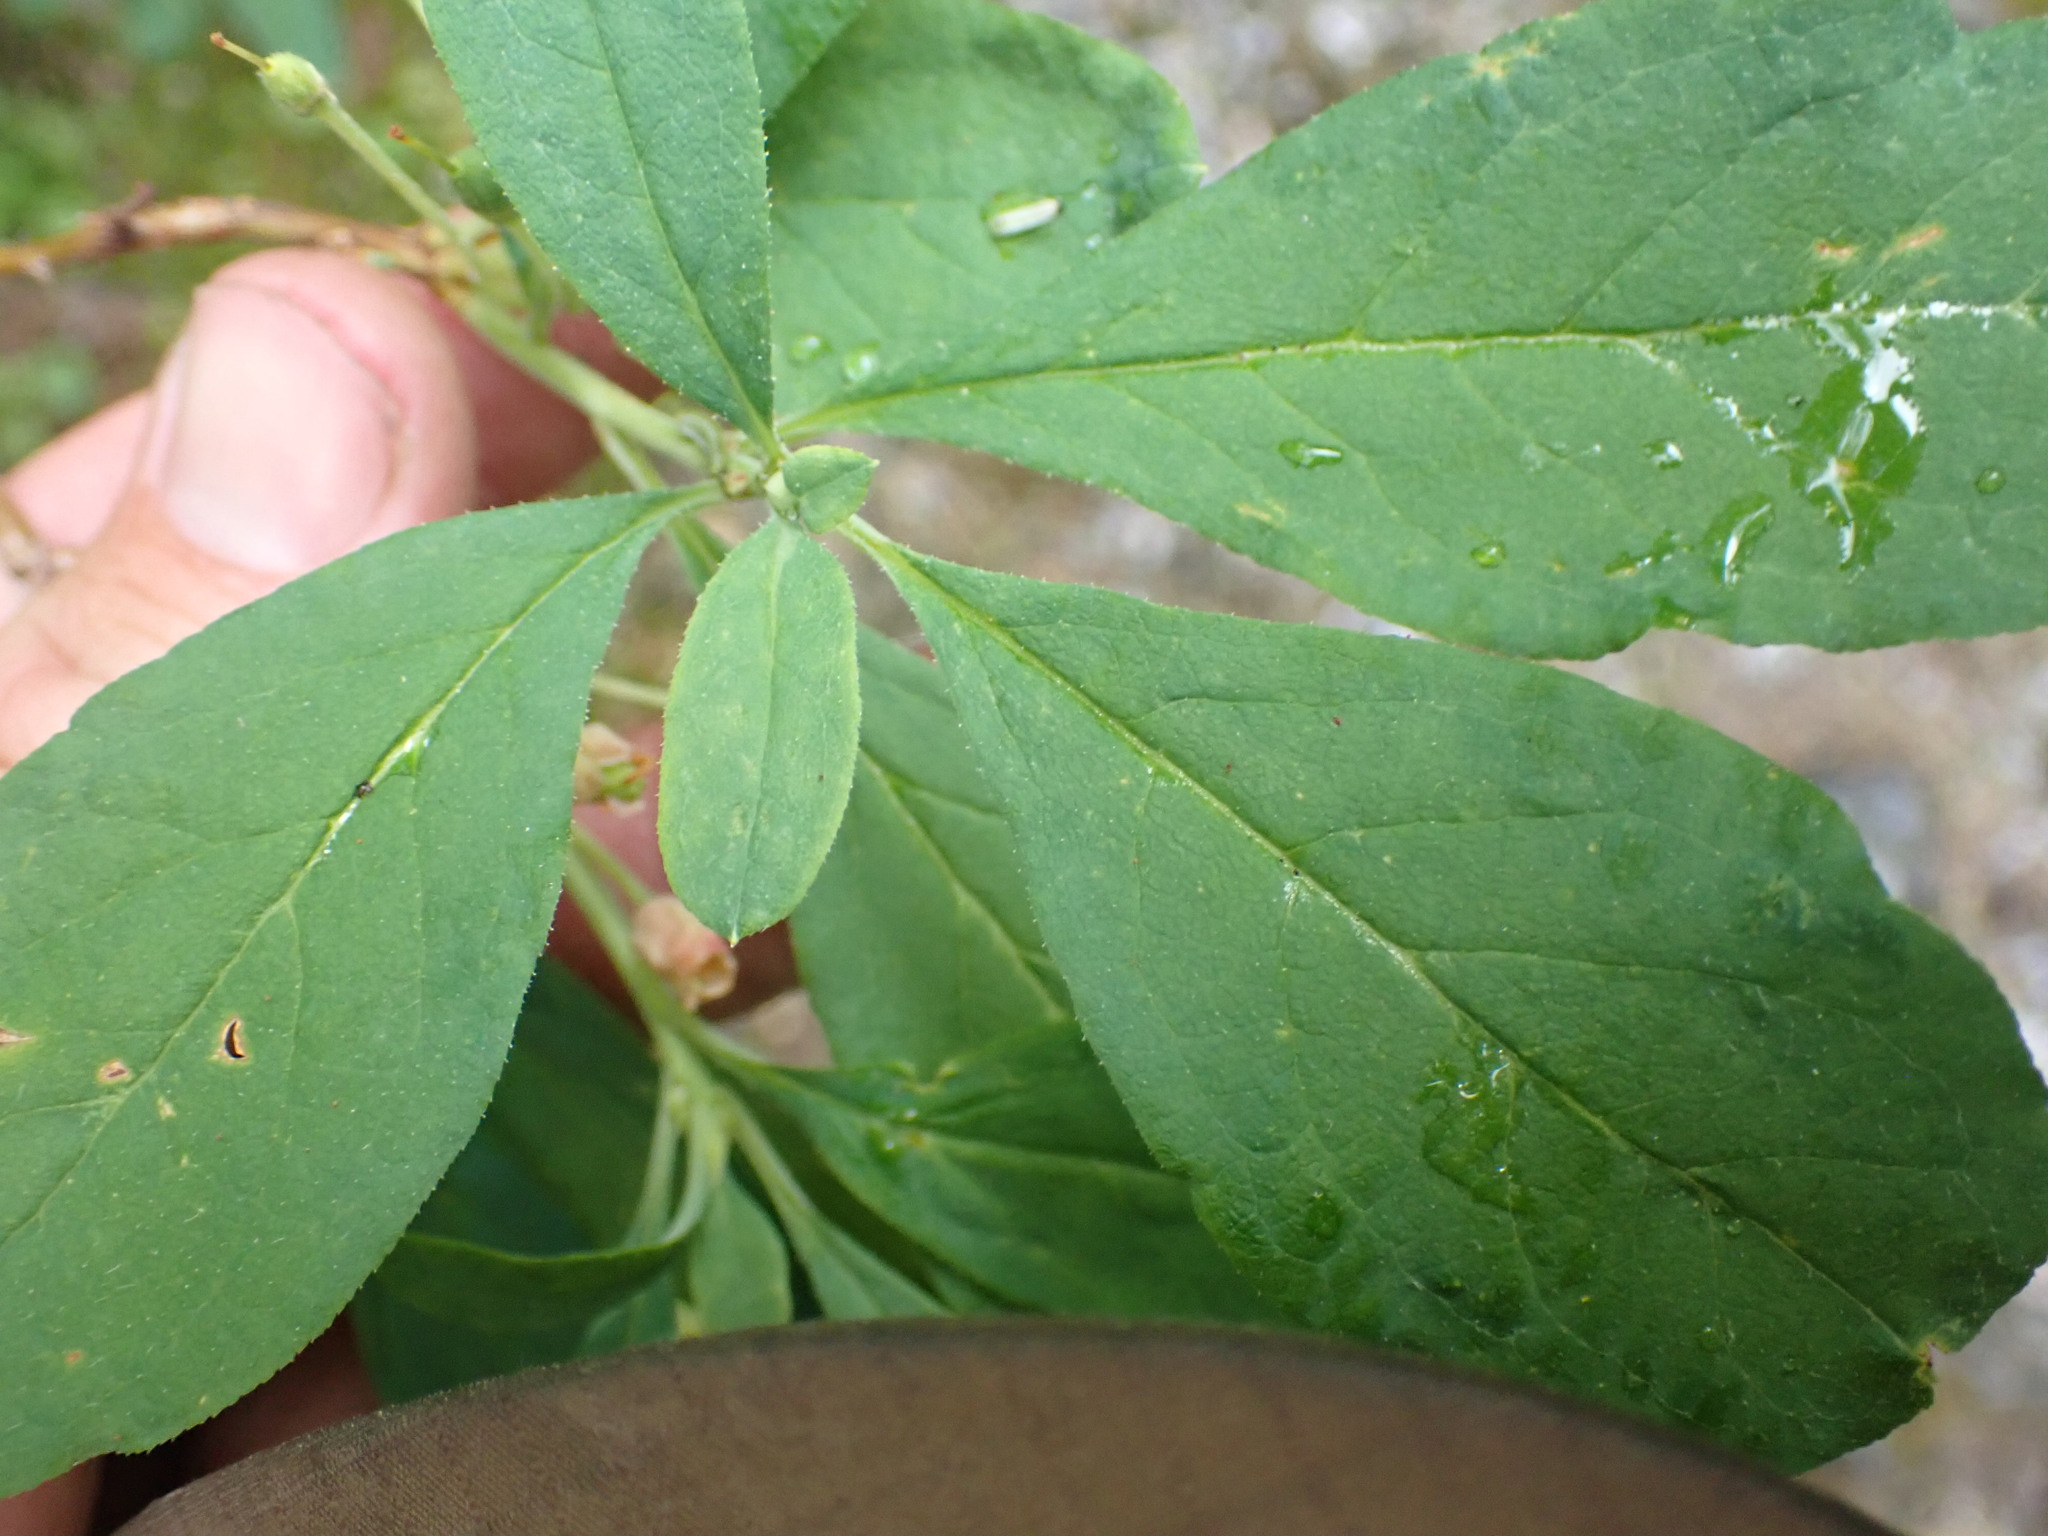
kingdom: Plantae
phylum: Tracheophyta
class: Magnoliopsida
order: Ericales
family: Ericaceae
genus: Rhododendron
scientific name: Rhododendron menziesii
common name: Pacific menziesia
